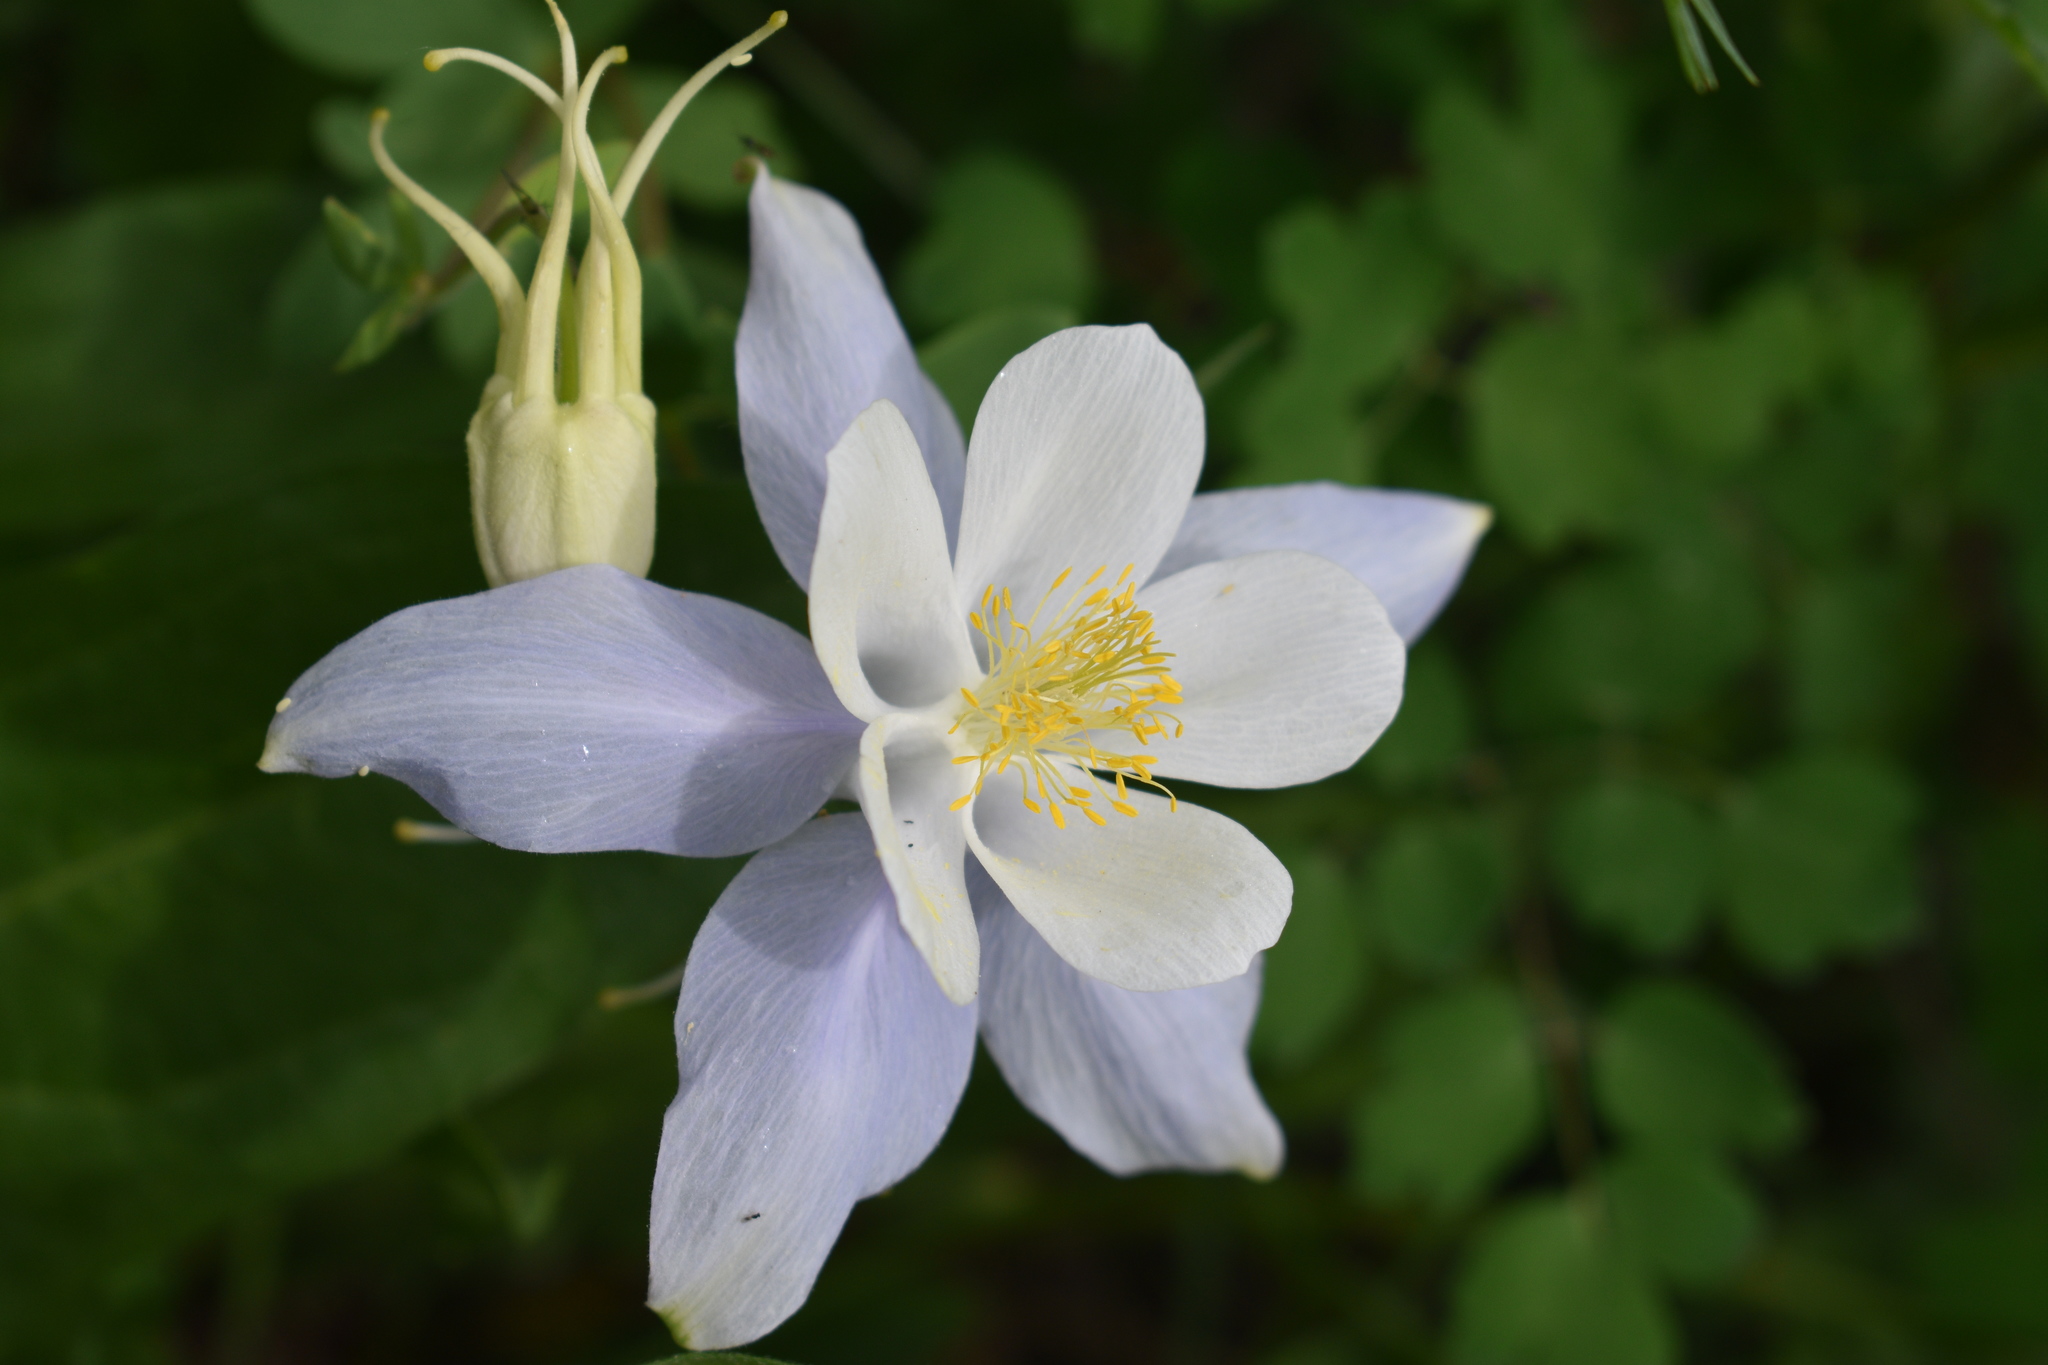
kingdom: Plantae
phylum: Tracheophyta
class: Magnoliopsida
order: Ranunculales
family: Ranunculaceae
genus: Aquilegia
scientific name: Aquilegia coerulea
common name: Rocky mountain columbine
